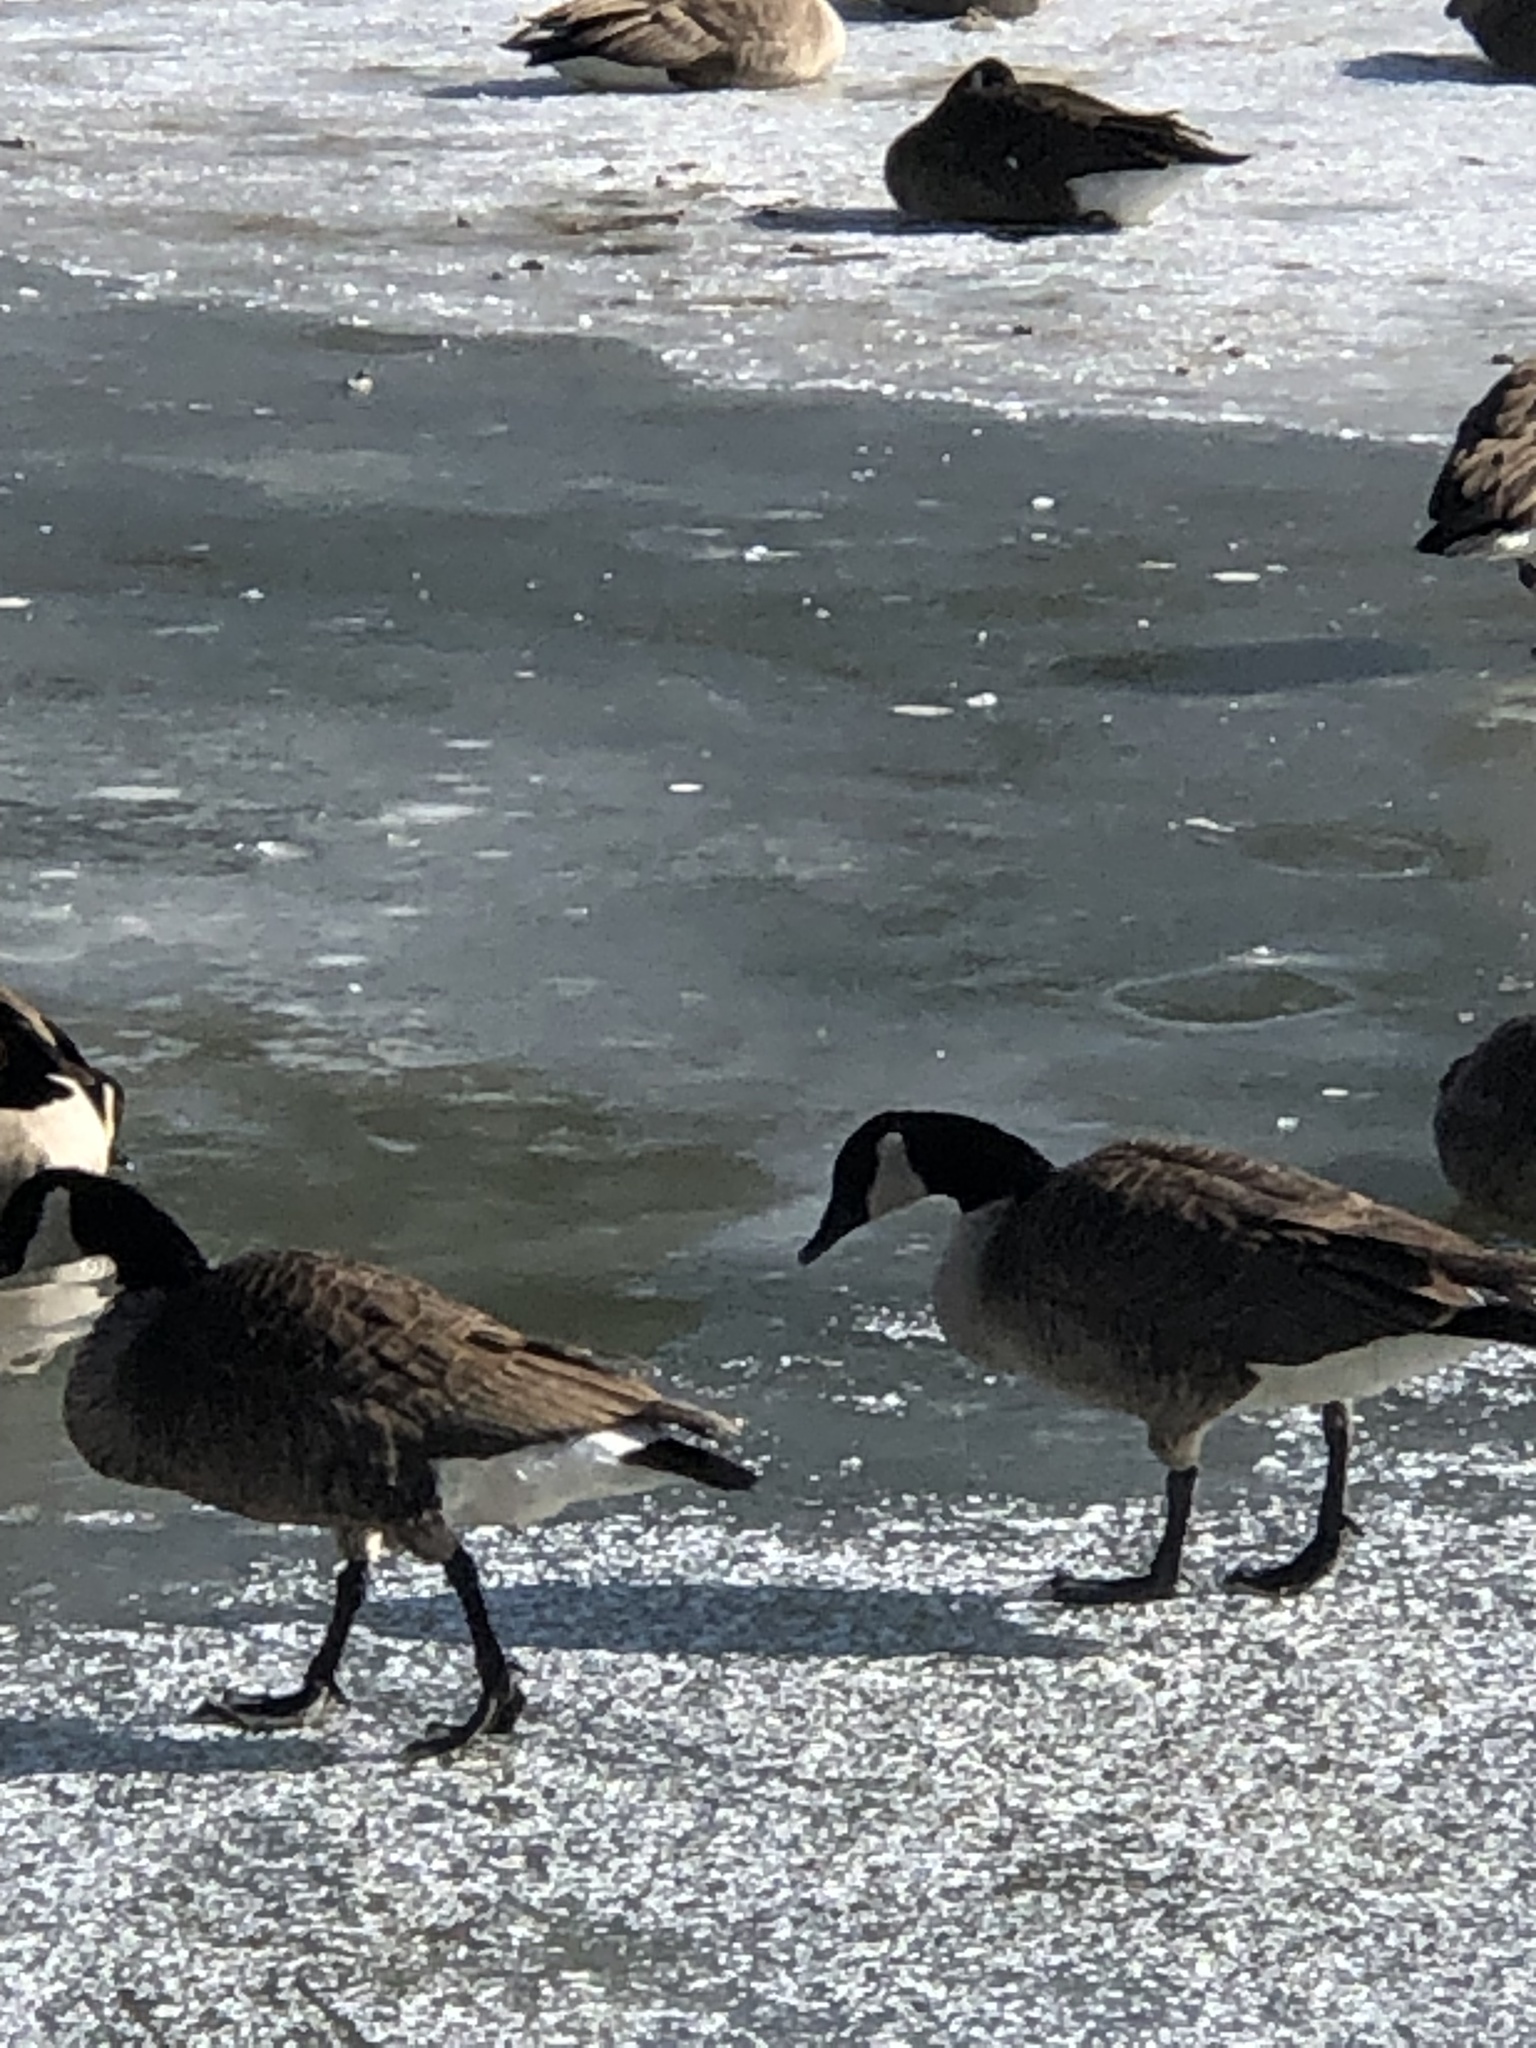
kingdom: Animalia
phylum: Chordata
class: Aves
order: Anseriformes
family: Anatidae
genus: Branta
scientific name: Branta canadensis
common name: Canada goose
